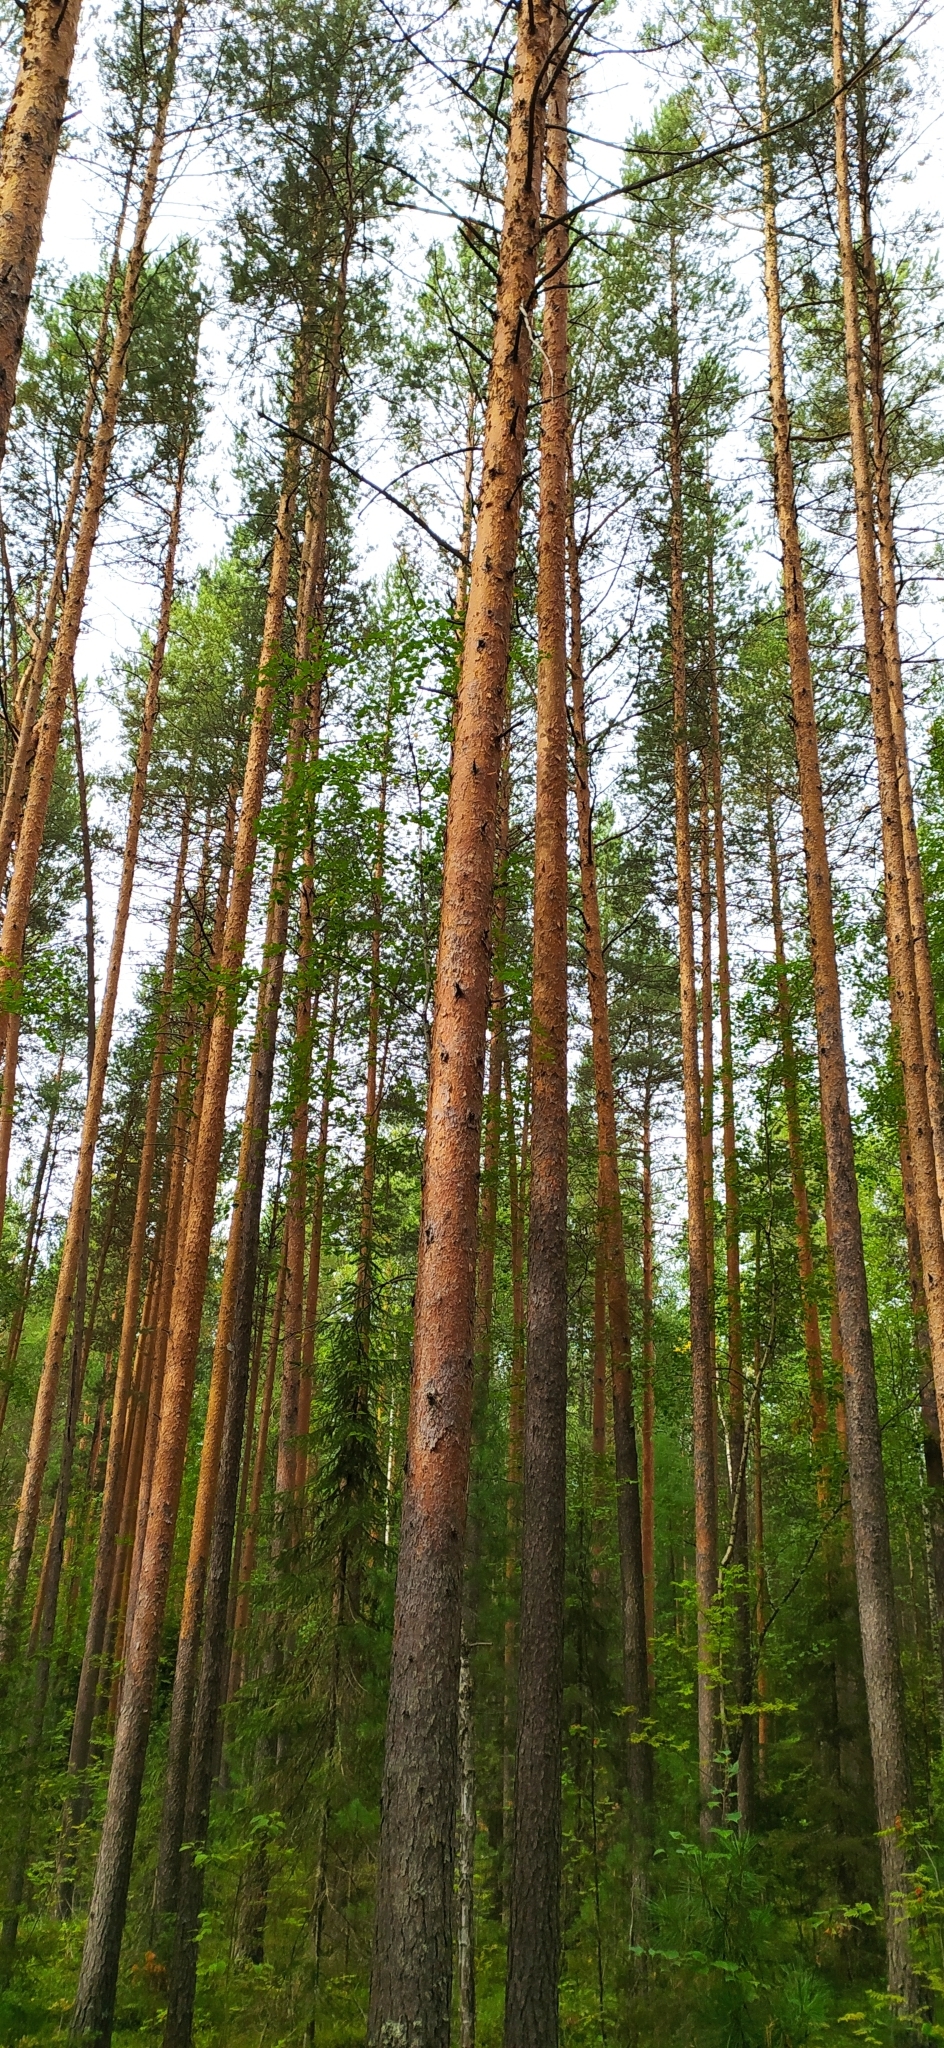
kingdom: Plantae
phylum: Tracheophyta
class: Pinopsida
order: Pinales
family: Pinaceae
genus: Pinus
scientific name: Pinus sylvestris
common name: Scots pine
